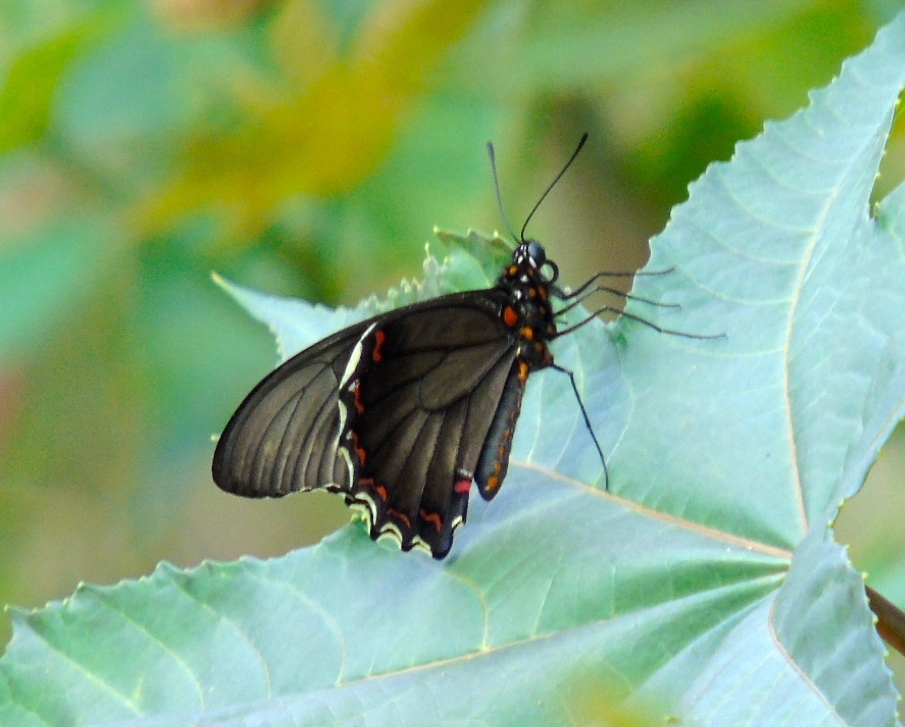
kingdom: Animalia
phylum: Arthropoda
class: Insecta
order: Lepidoptera
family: Papilionidae
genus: Battus
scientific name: Battus polydamas
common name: Polydamas swallowtail
